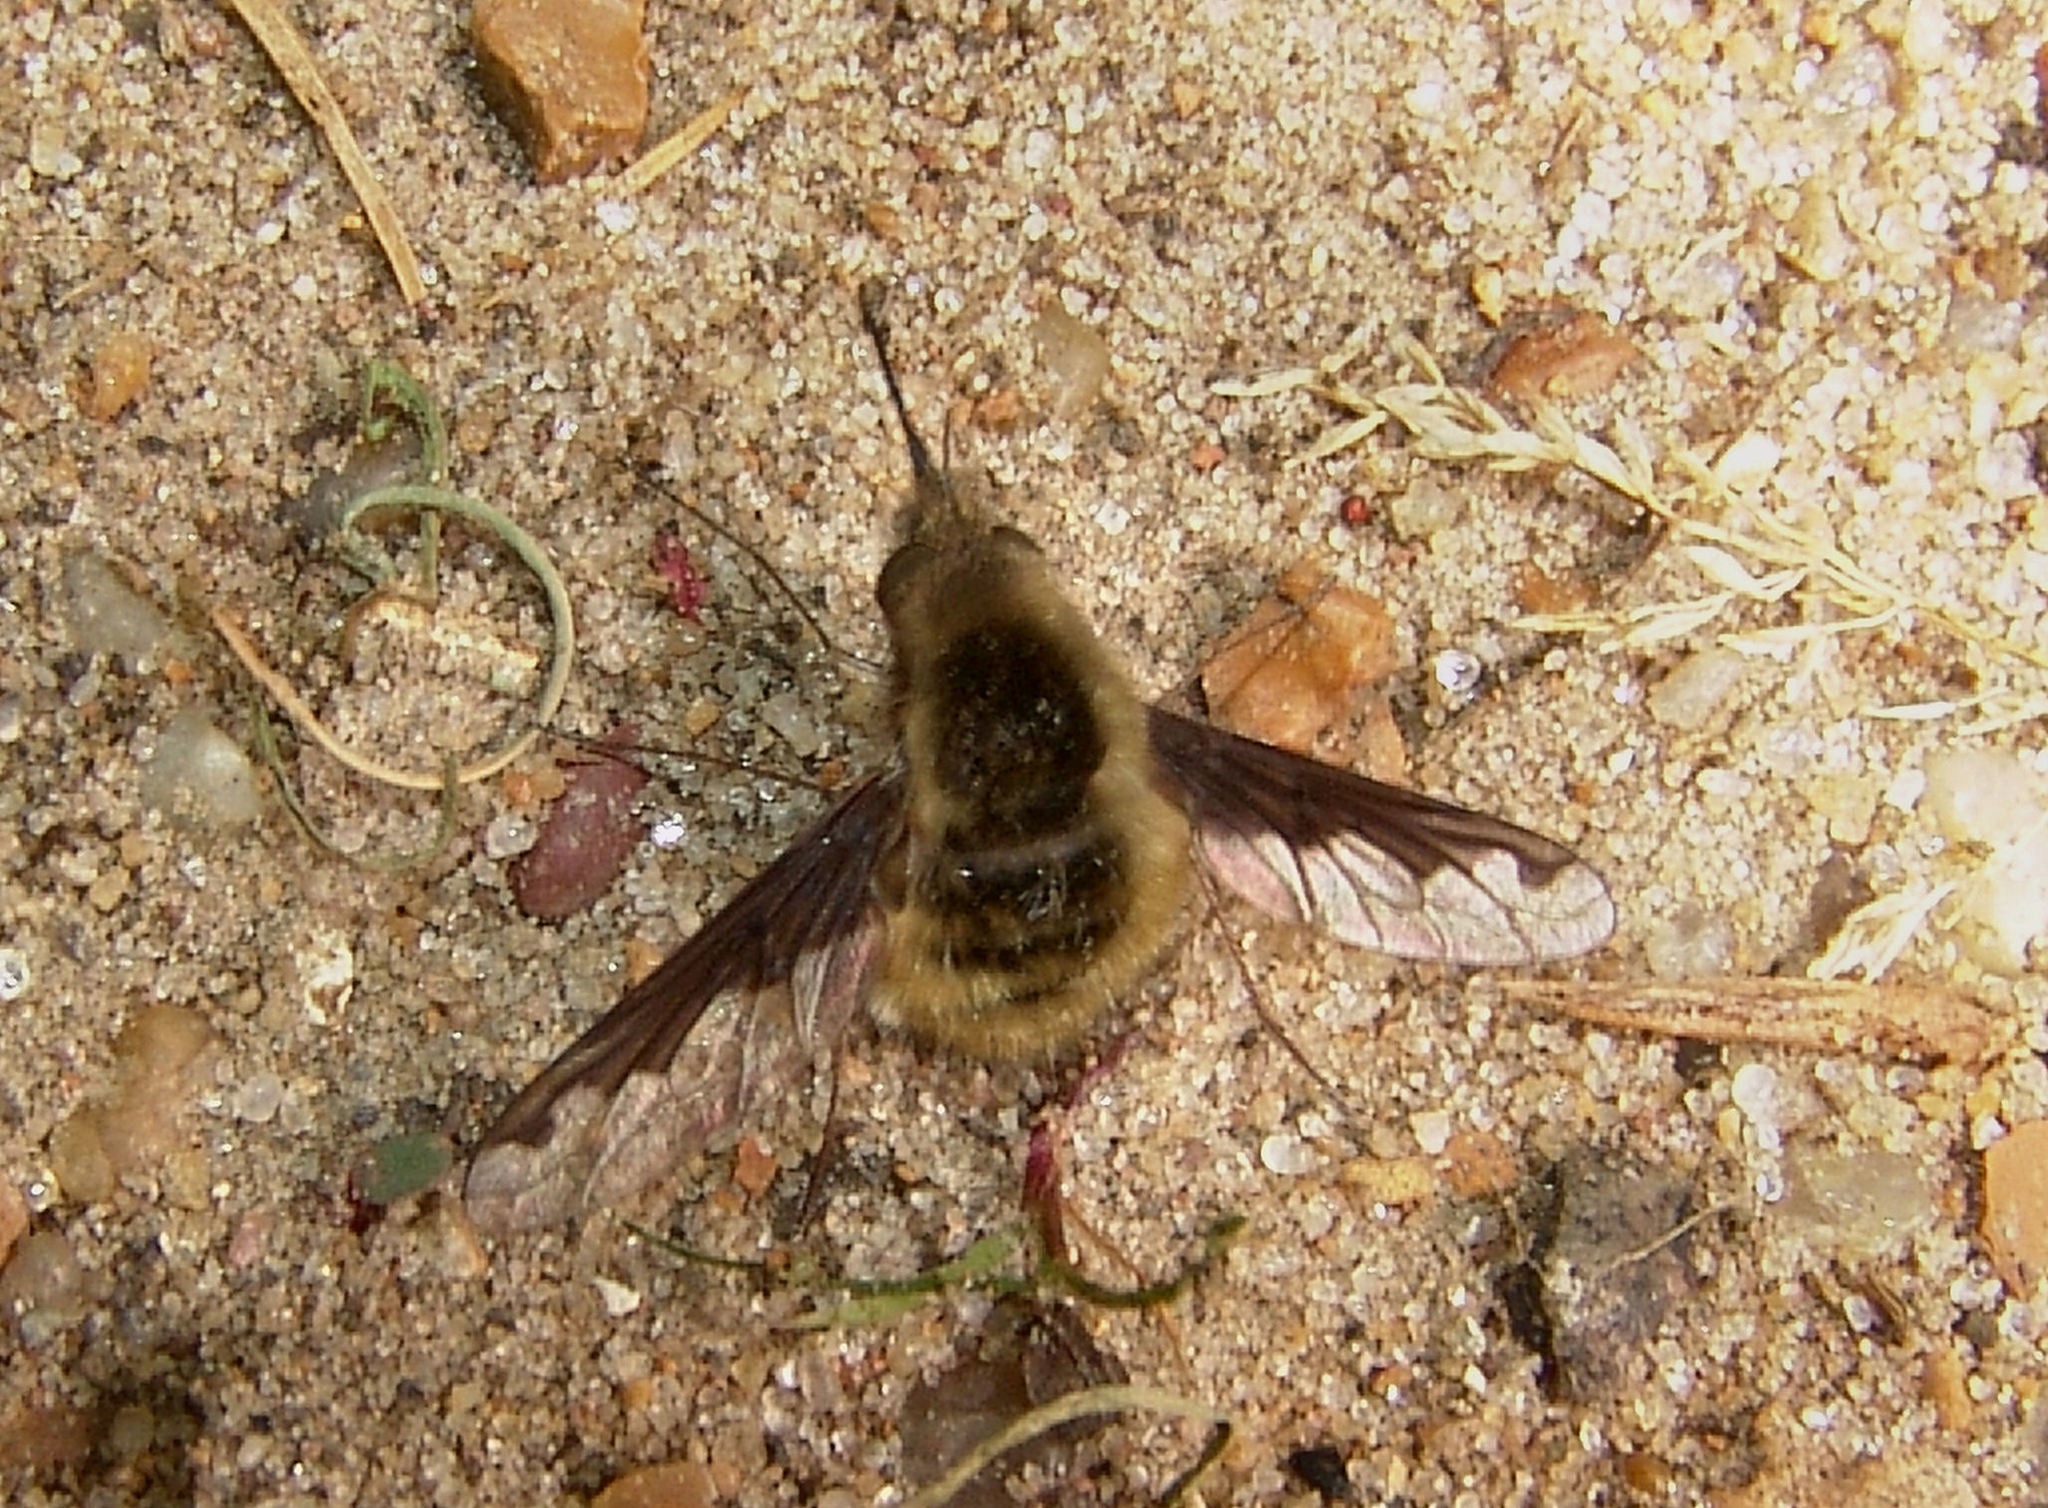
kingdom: Animalia
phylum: Arthropoda
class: Insecta
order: Diptera
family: Bombyliidae
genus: Bombylius
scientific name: Bombylius major
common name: Bee fly
